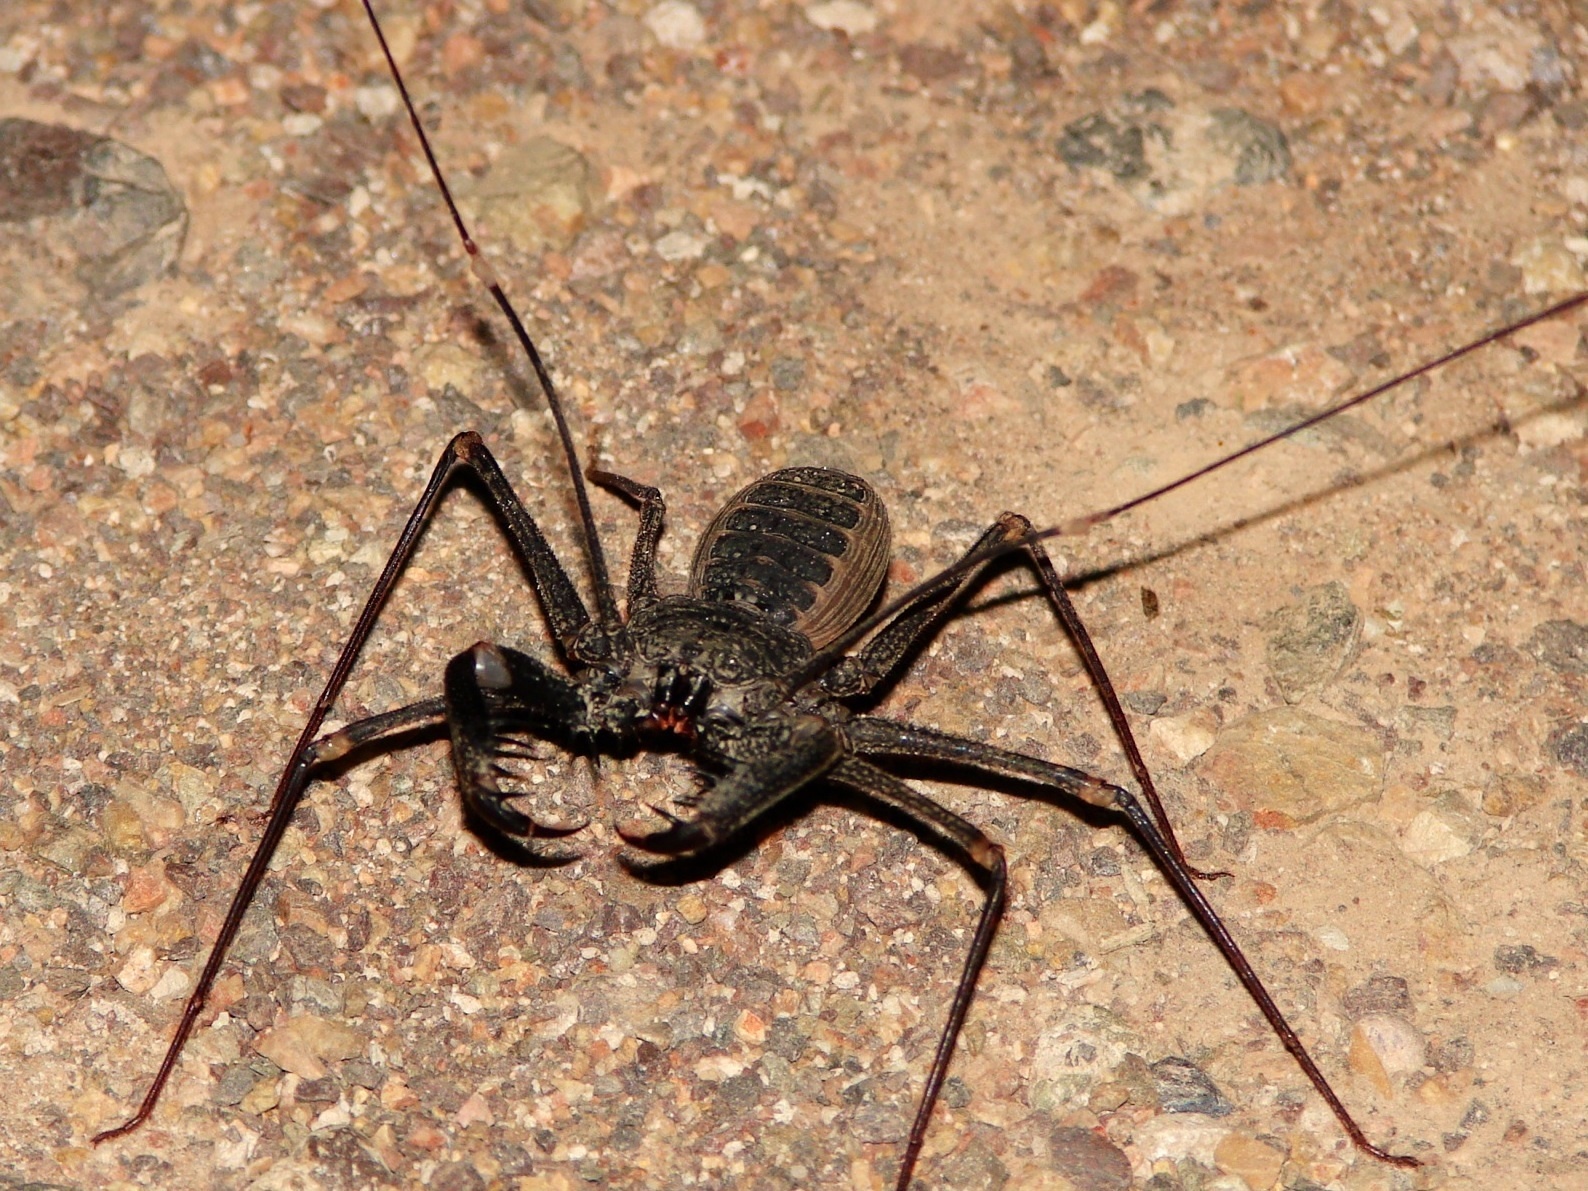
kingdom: Animalia
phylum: Arthropoda
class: Arachnida
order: Amblypygi
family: Phrynidae
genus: Phrynus
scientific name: Phrynus
